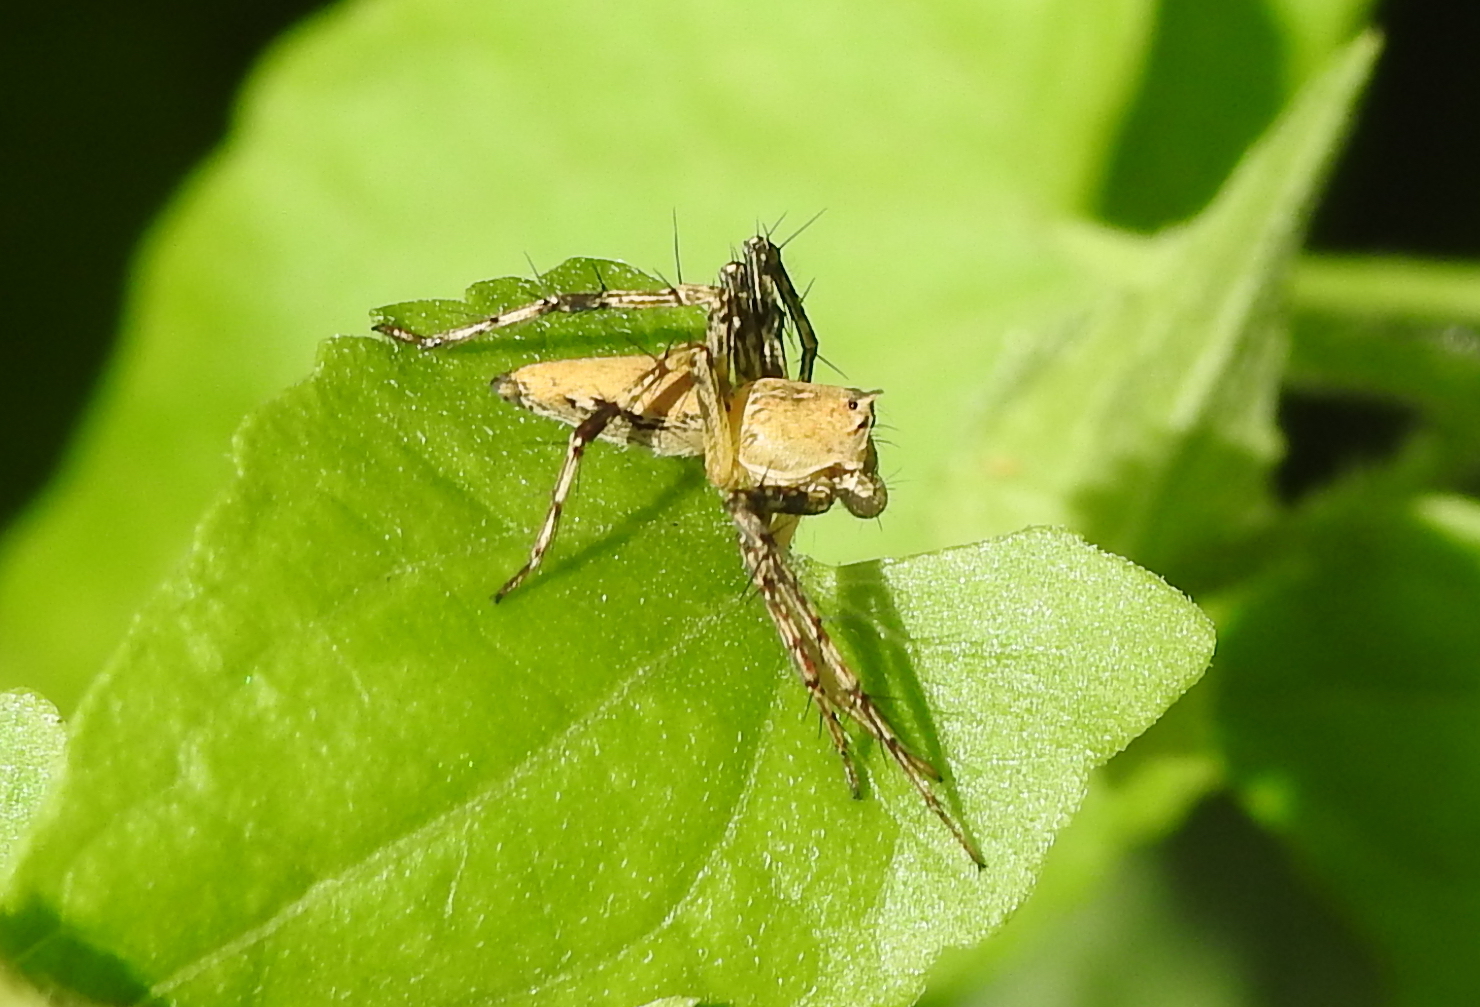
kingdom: Animalia
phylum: Arthropoda
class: Arachnida
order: Araneae
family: Oxyopidae
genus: Hamataliwa
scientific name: Hamataliwa incompta
